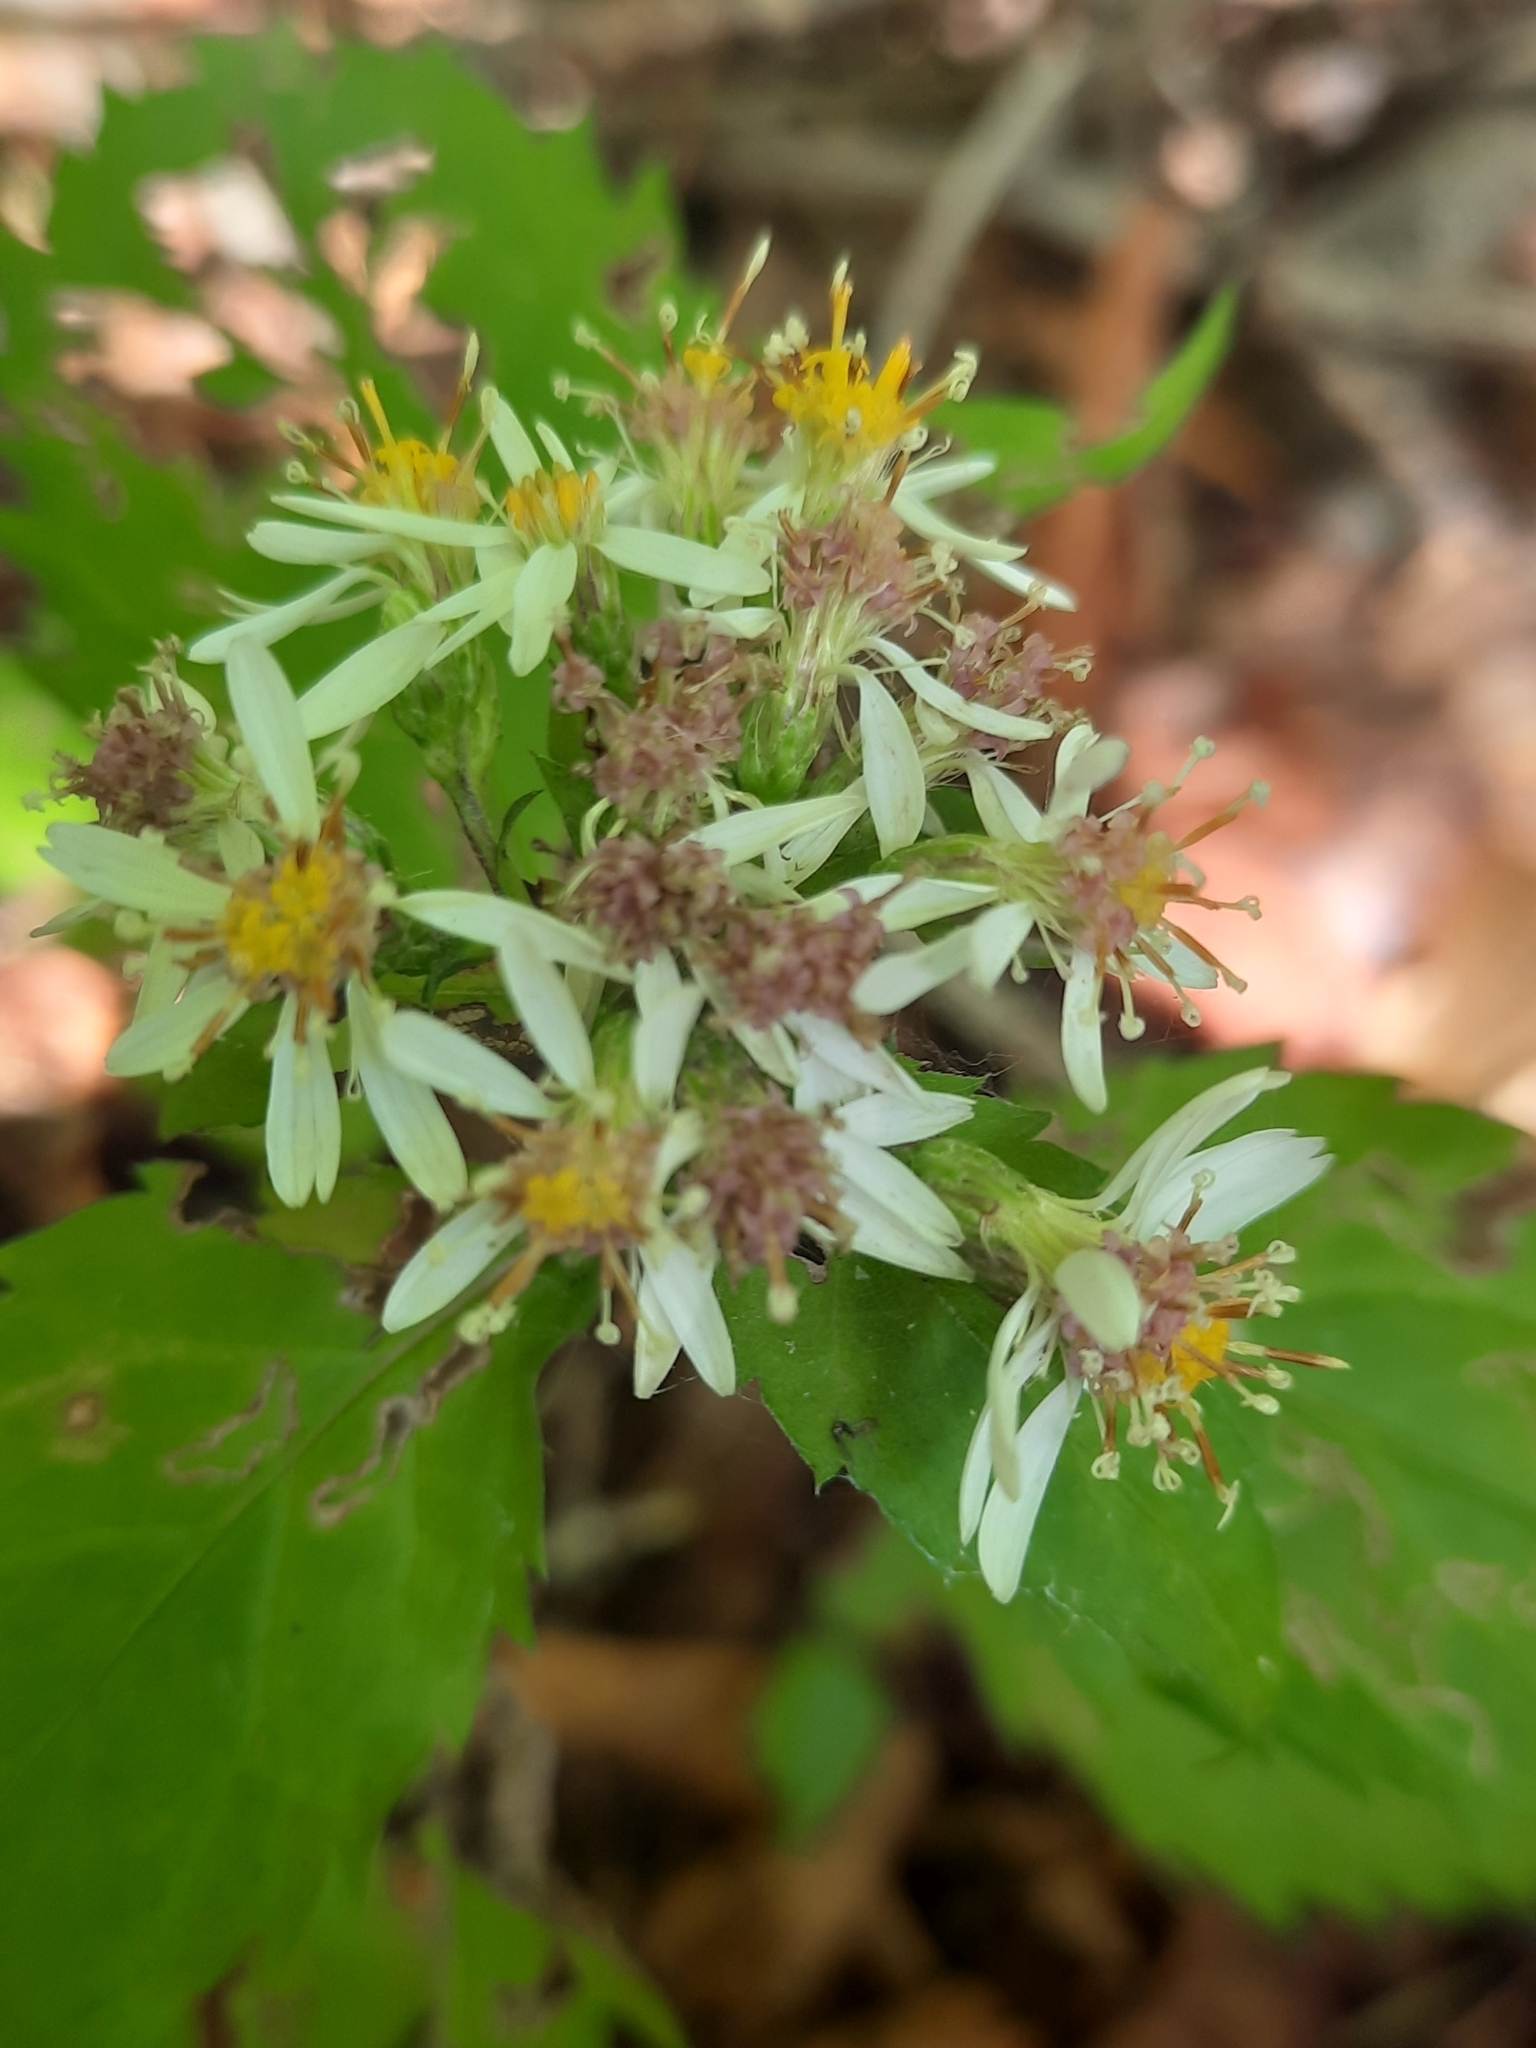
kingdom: Plantae
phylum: Tracheophyta
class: Magnoliopsida
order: Asterales
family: Asteraceae
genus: Eurybia
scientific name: Eurybia divaricata
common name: White wood aster
